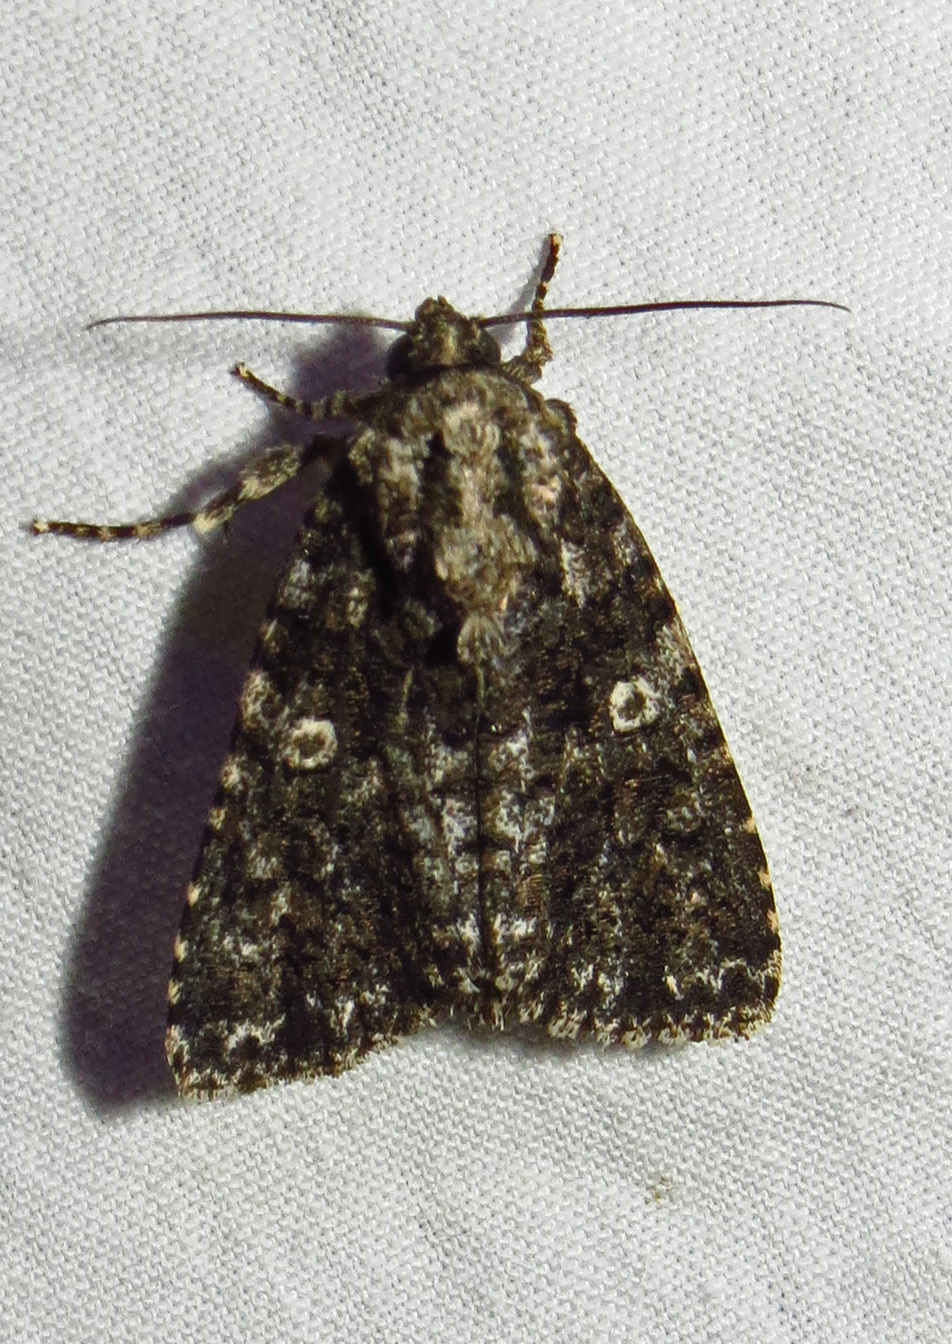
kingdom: Animalia
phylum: Arthropoda
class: Insecta
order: Lepidoptera
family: Noctuidae
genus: Acronicta
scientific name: Acronicta afflicta
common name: Afflicted dagger moth
